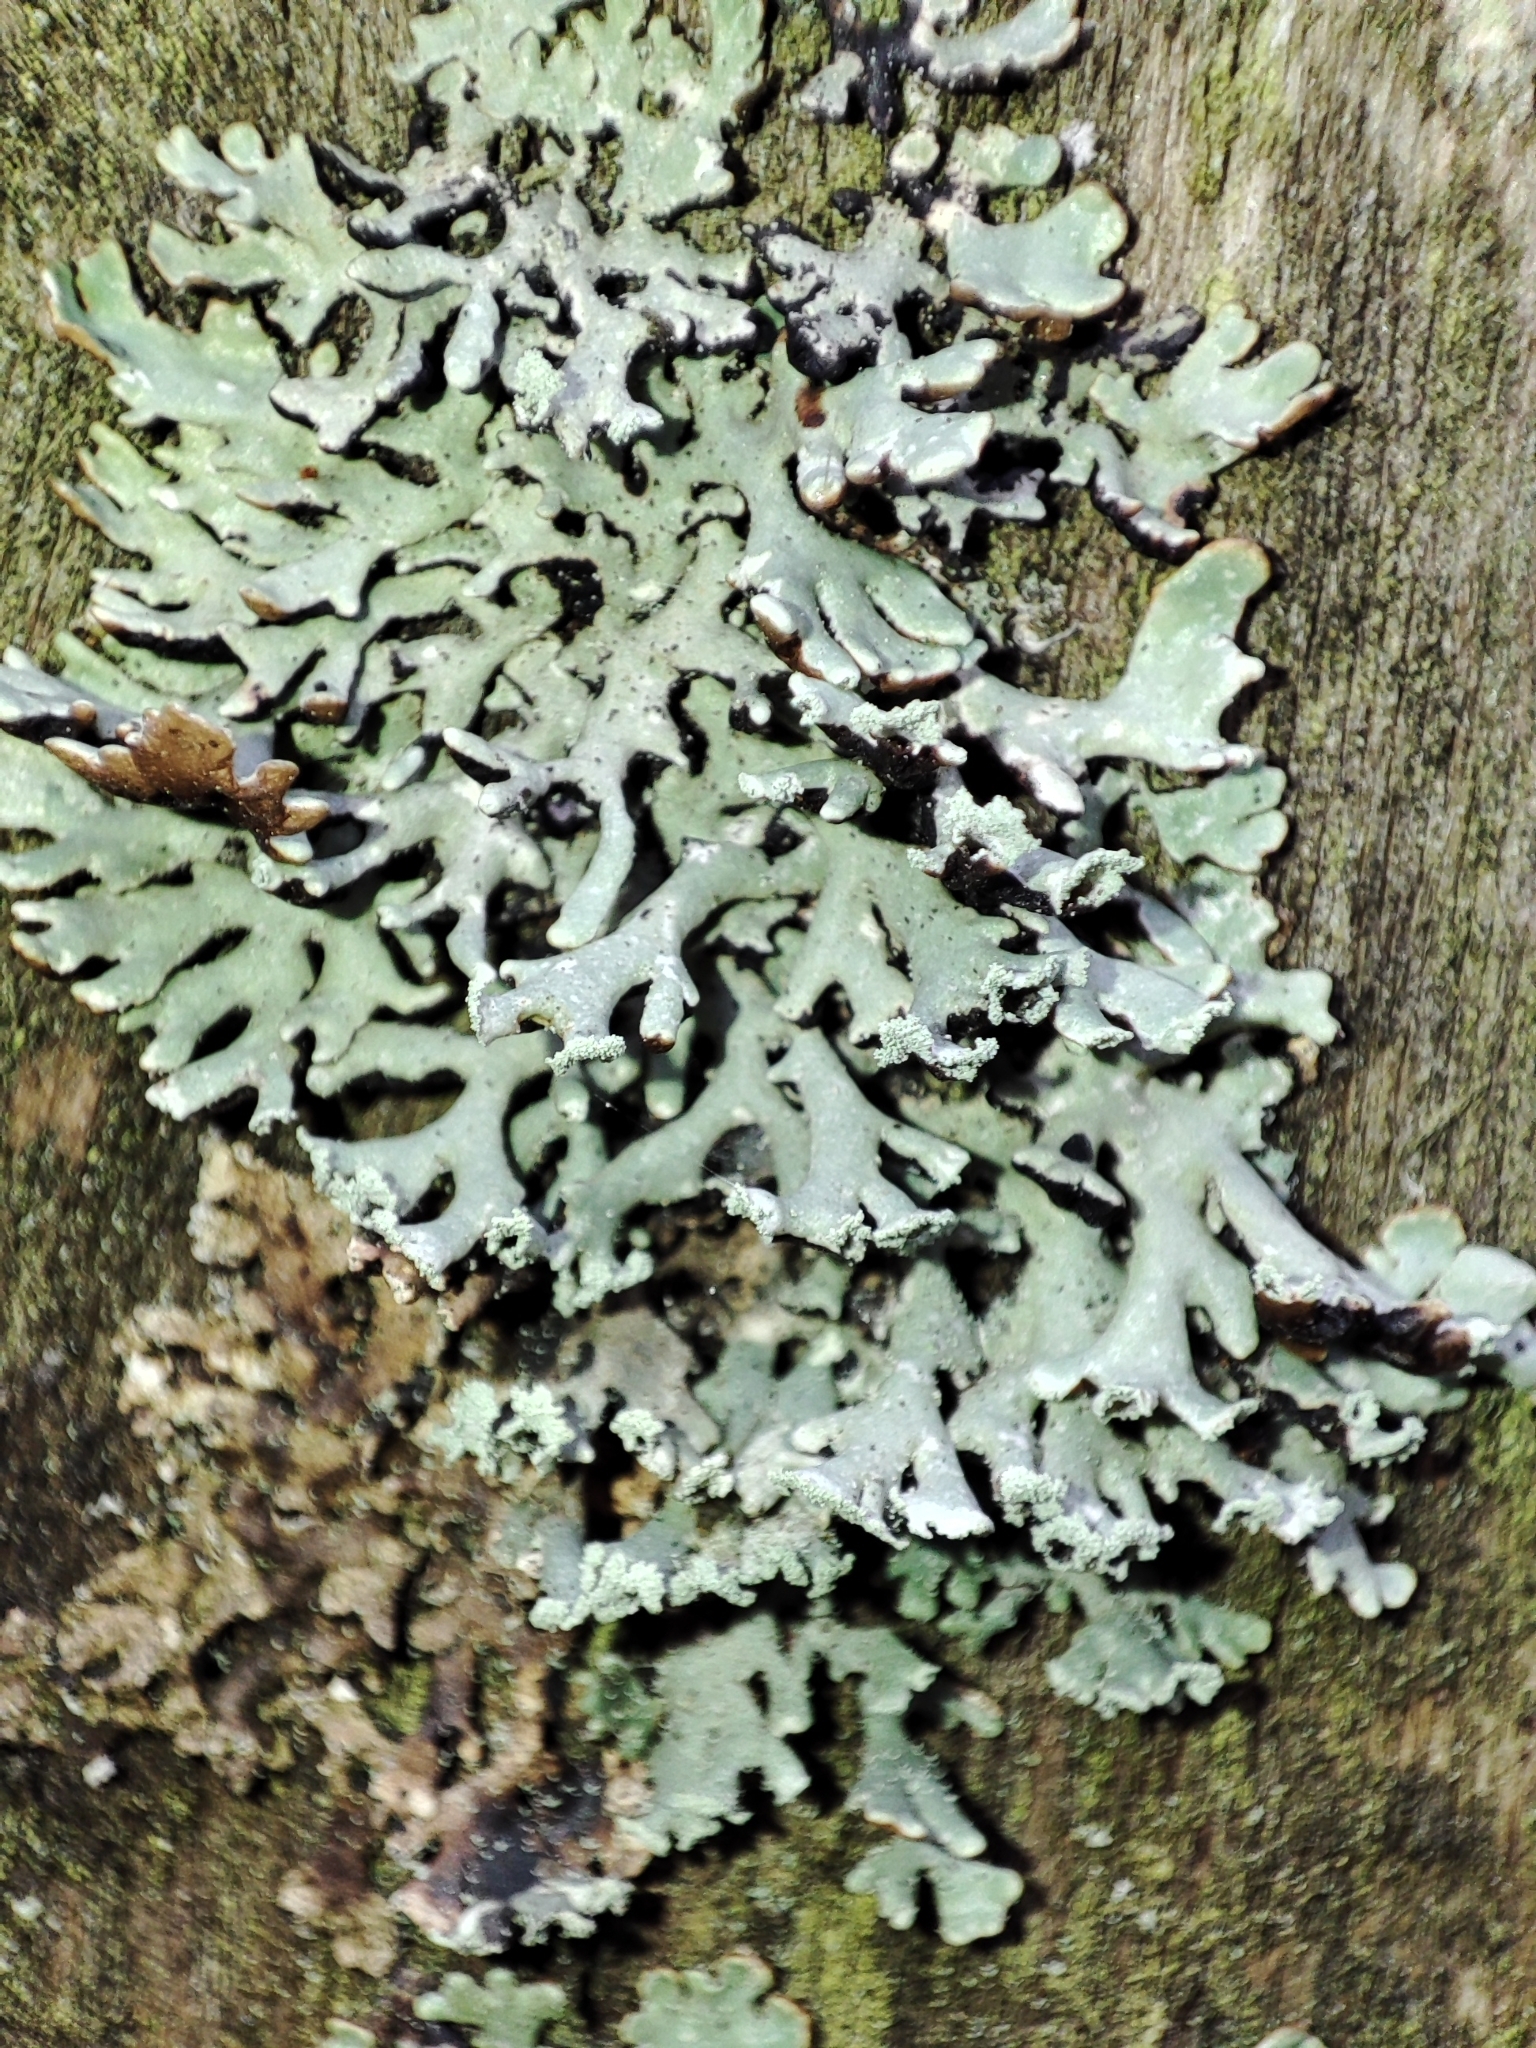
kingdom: Fungi
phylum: Ascomycota
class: Lecanoromycetes
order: Lecanorales
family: Parmeliaceae
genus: Hypogymnia
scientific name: Hypogymnia physodes
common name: Dark crottle
